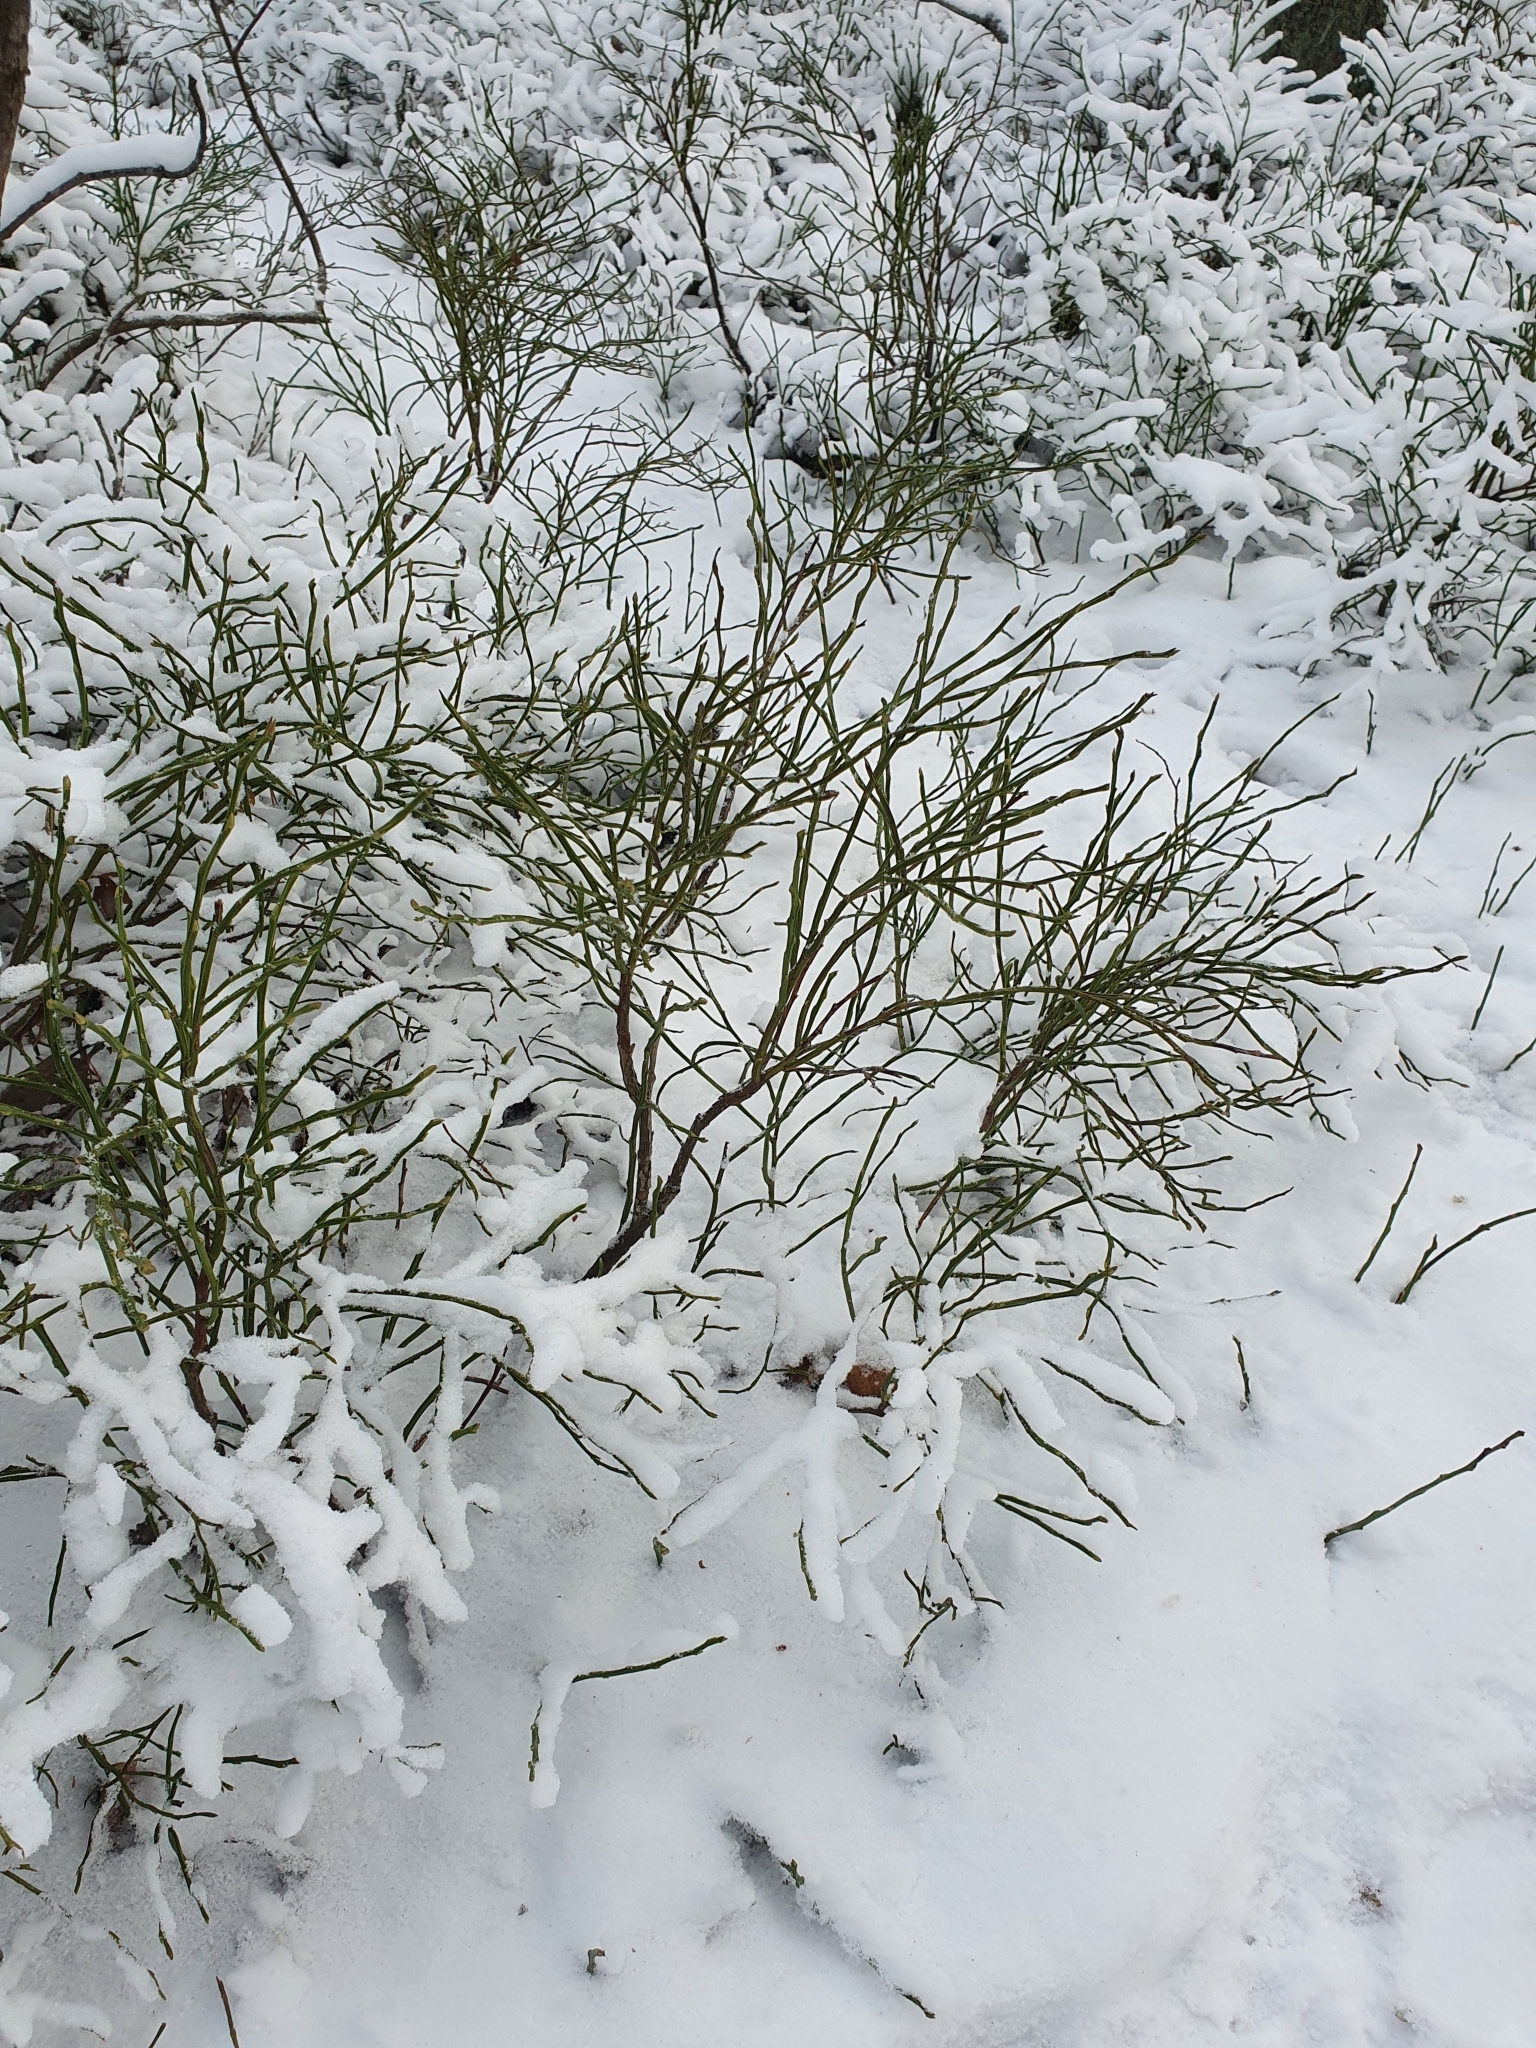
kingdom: Plantae
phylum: Tracheophyta
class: Magnoliopsida
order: Ericales
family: Ericaceae
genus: Vaccinium
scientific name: Vaccinium myrtillus
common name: Bilberry
